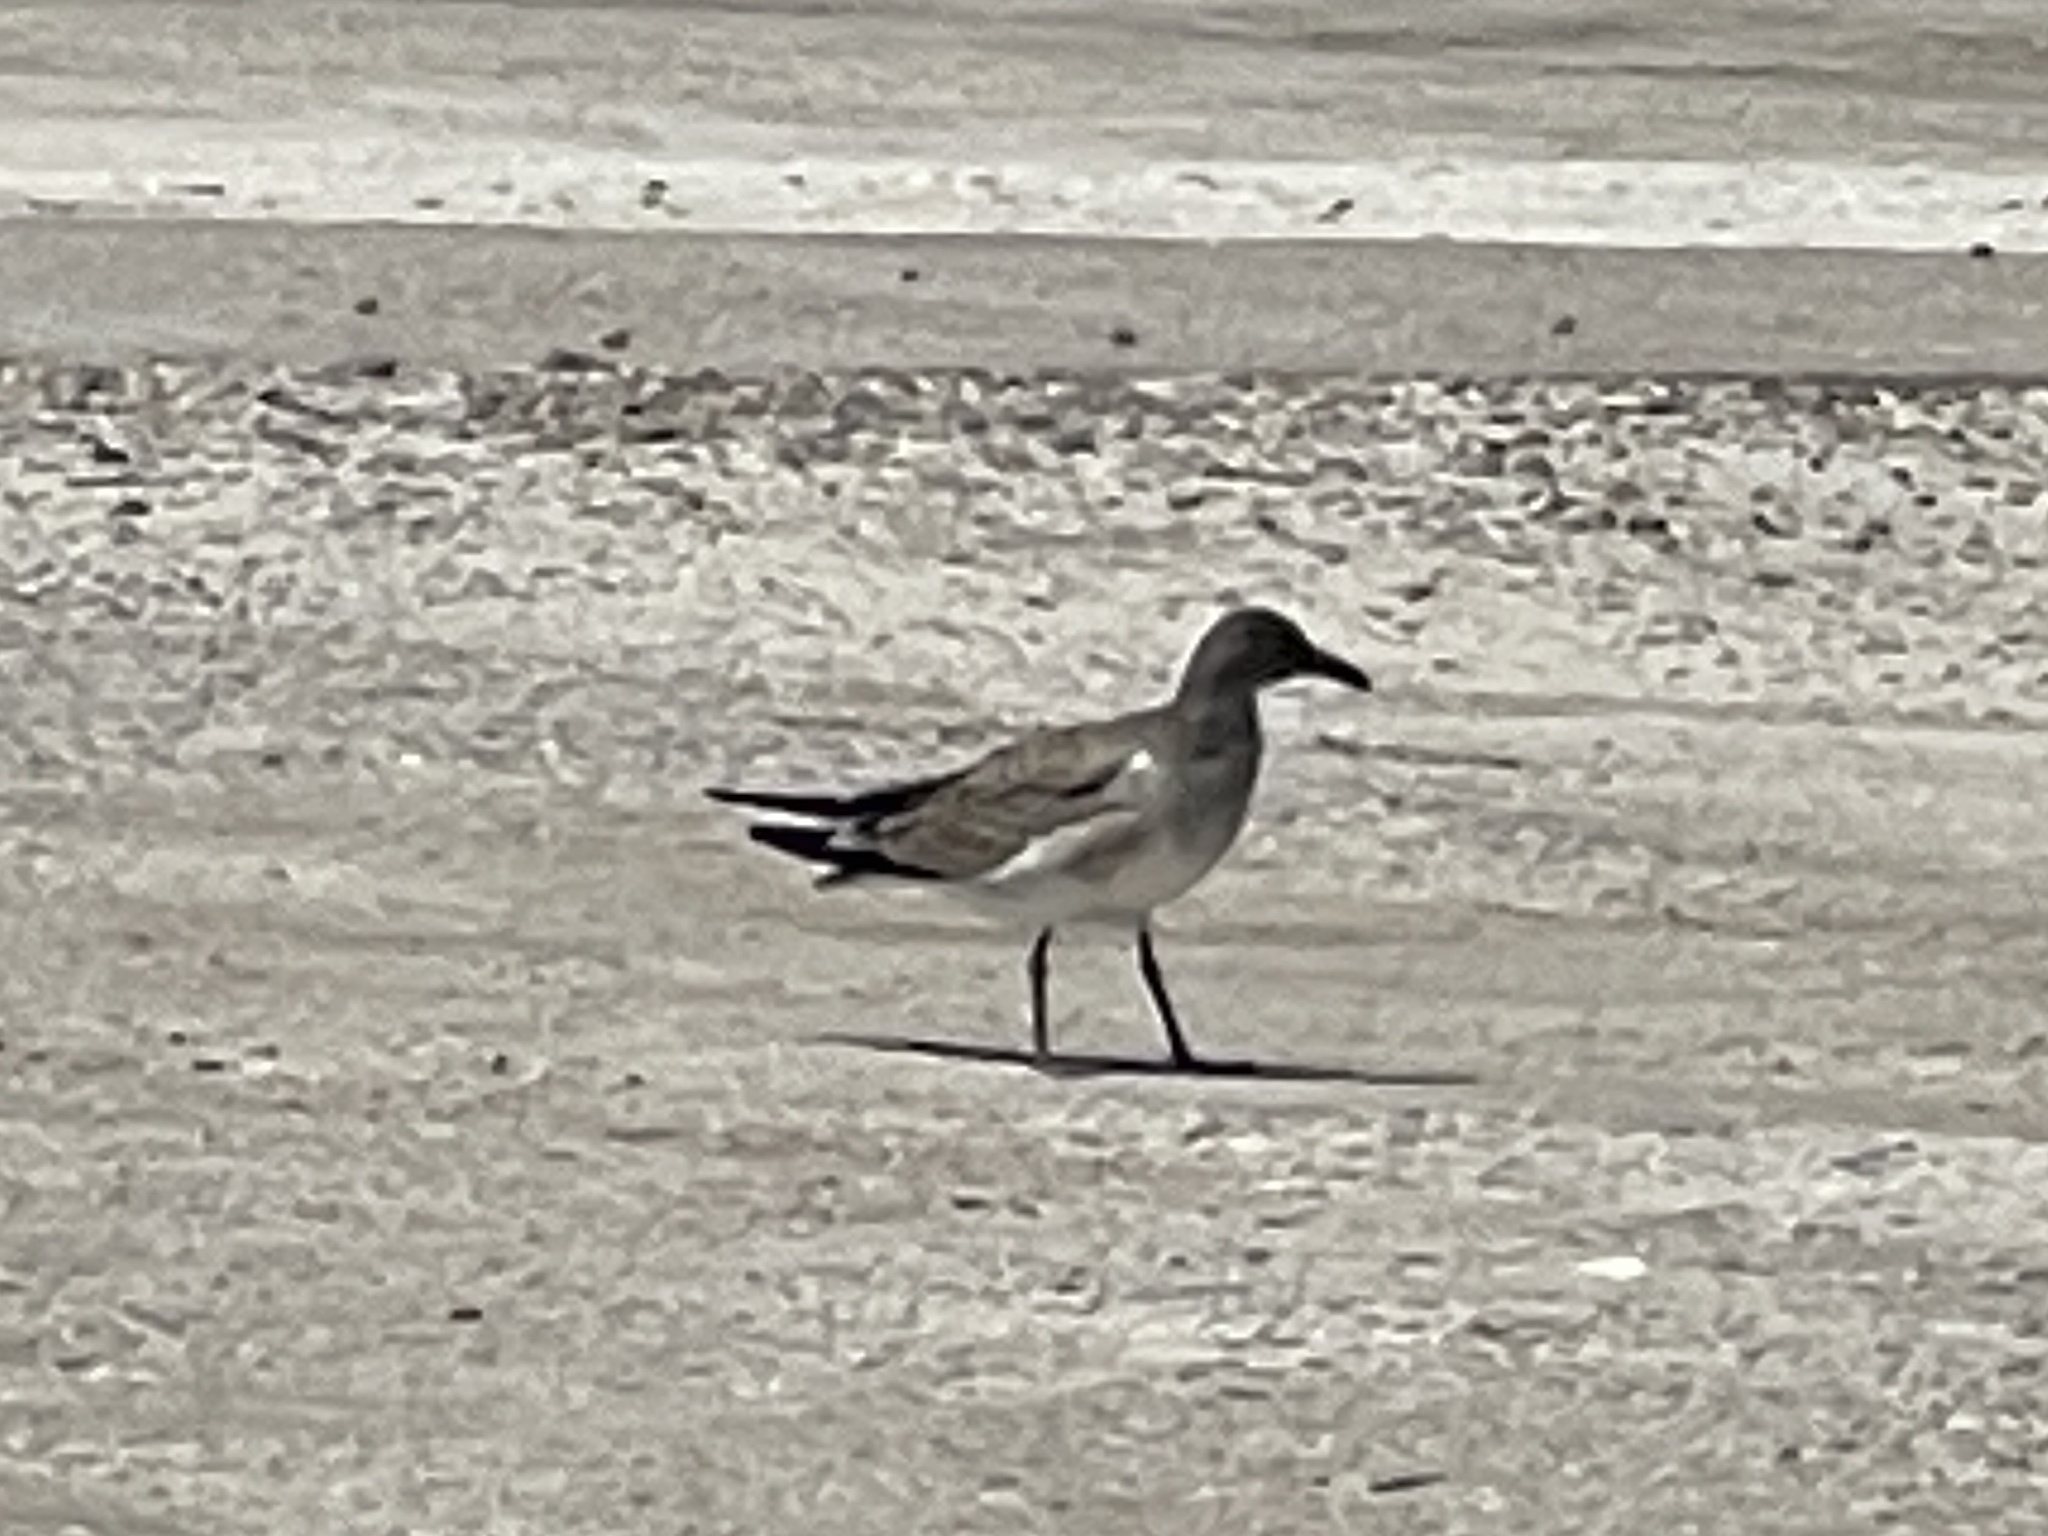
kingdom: Animalia
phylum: Chordata
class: Aves
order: Charadriiformes
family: Laridae
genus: Leucophaeus
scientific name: Leucophaeus atricilla
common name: Laughing gull
